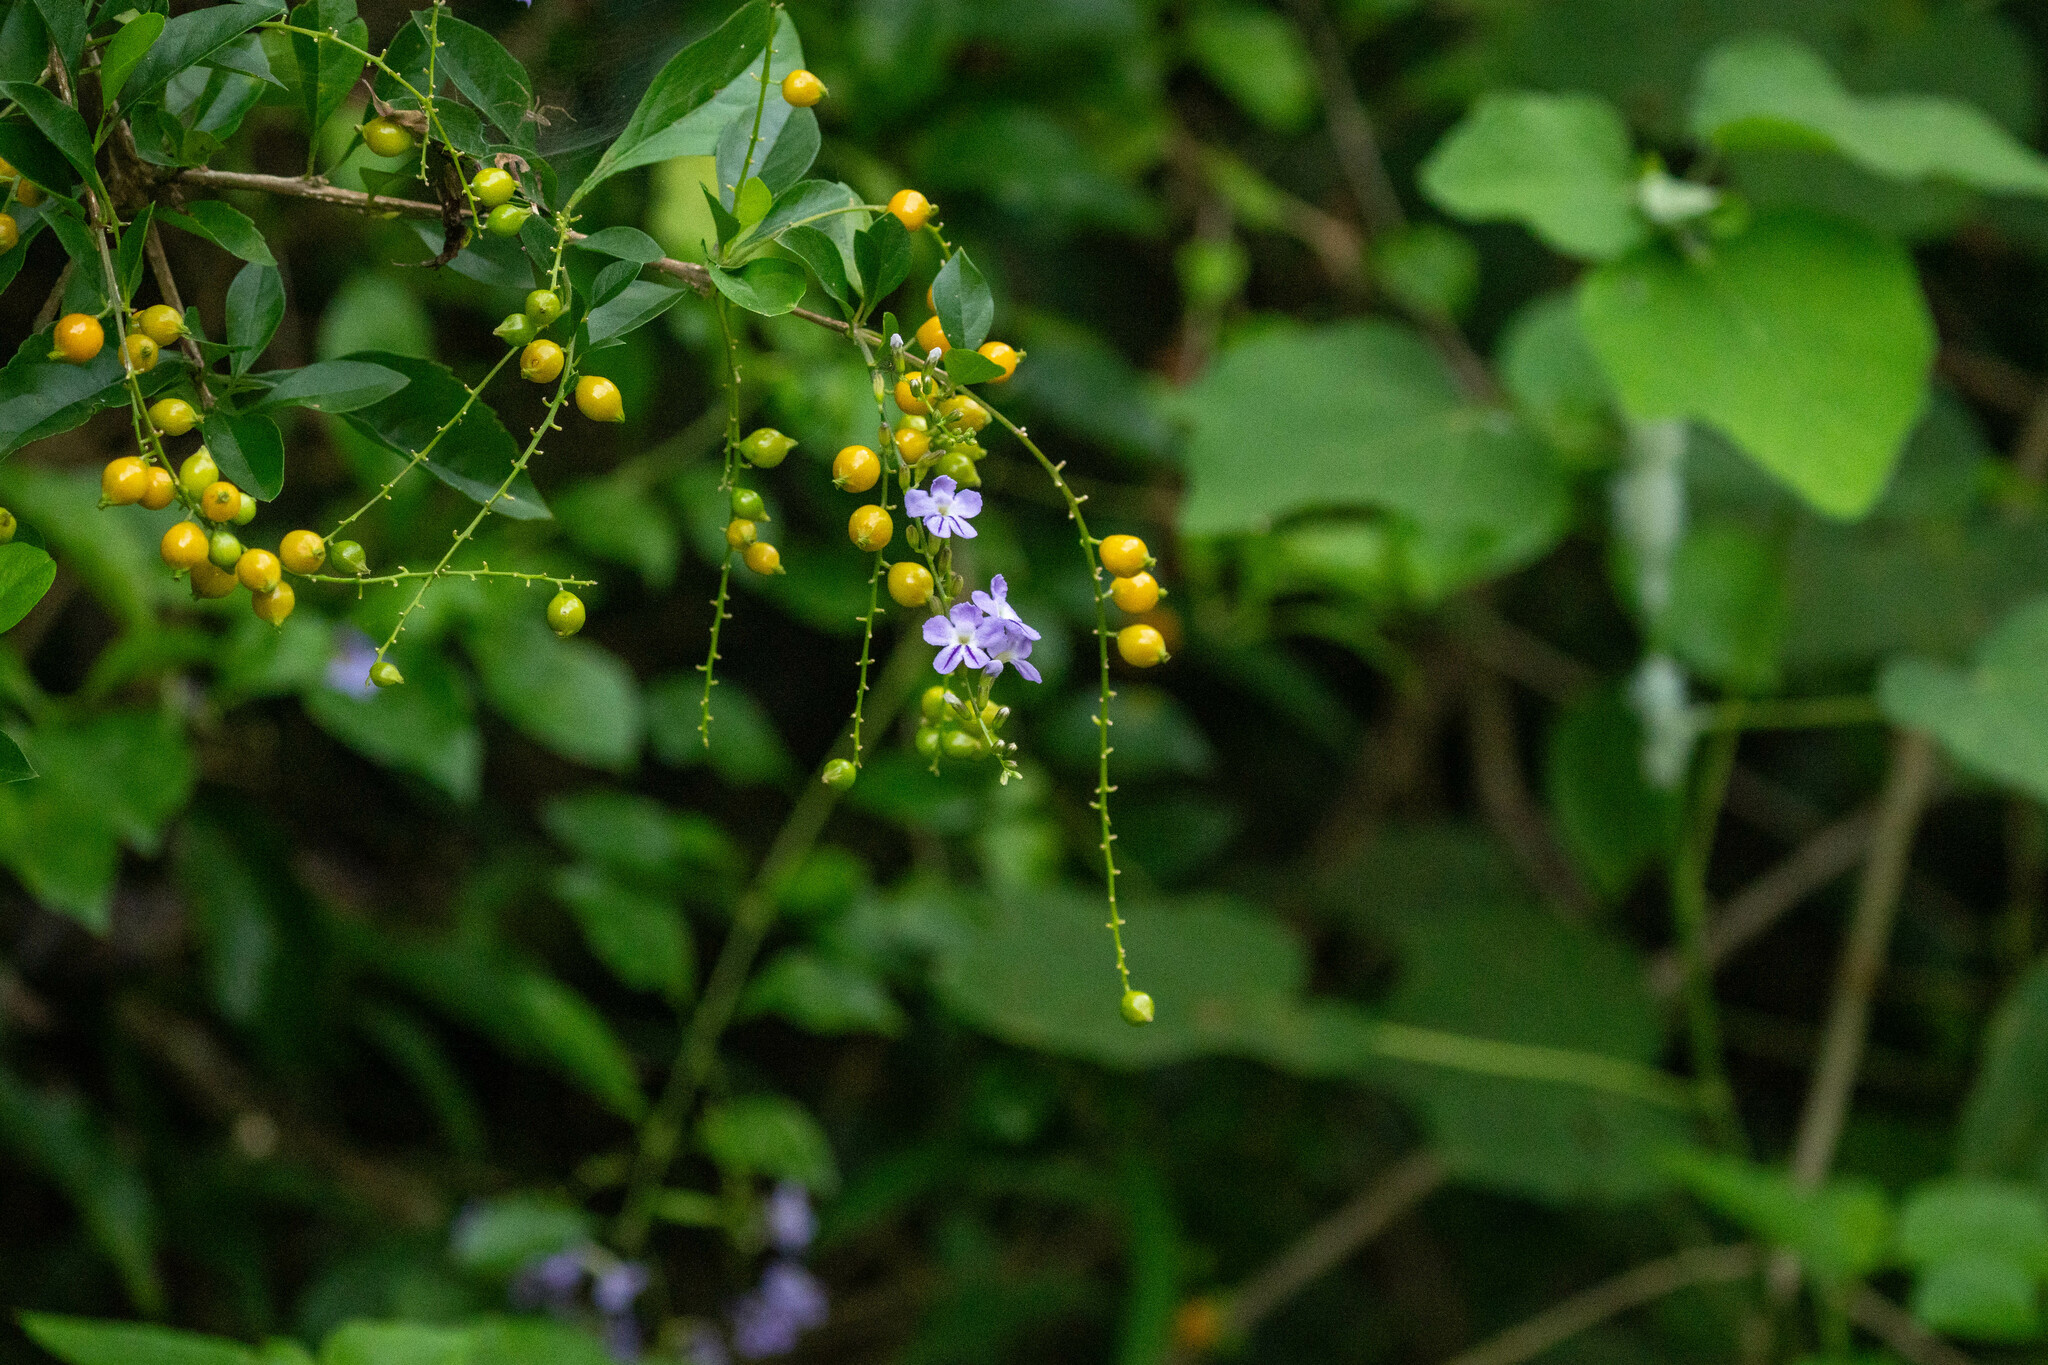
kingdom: Plantae
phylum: Tracheophyta
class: Magnoliopsida
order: Lamiales
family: Verbenaceae
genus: Duranta
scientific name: Duranta erecta
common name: Golden dewdrops
